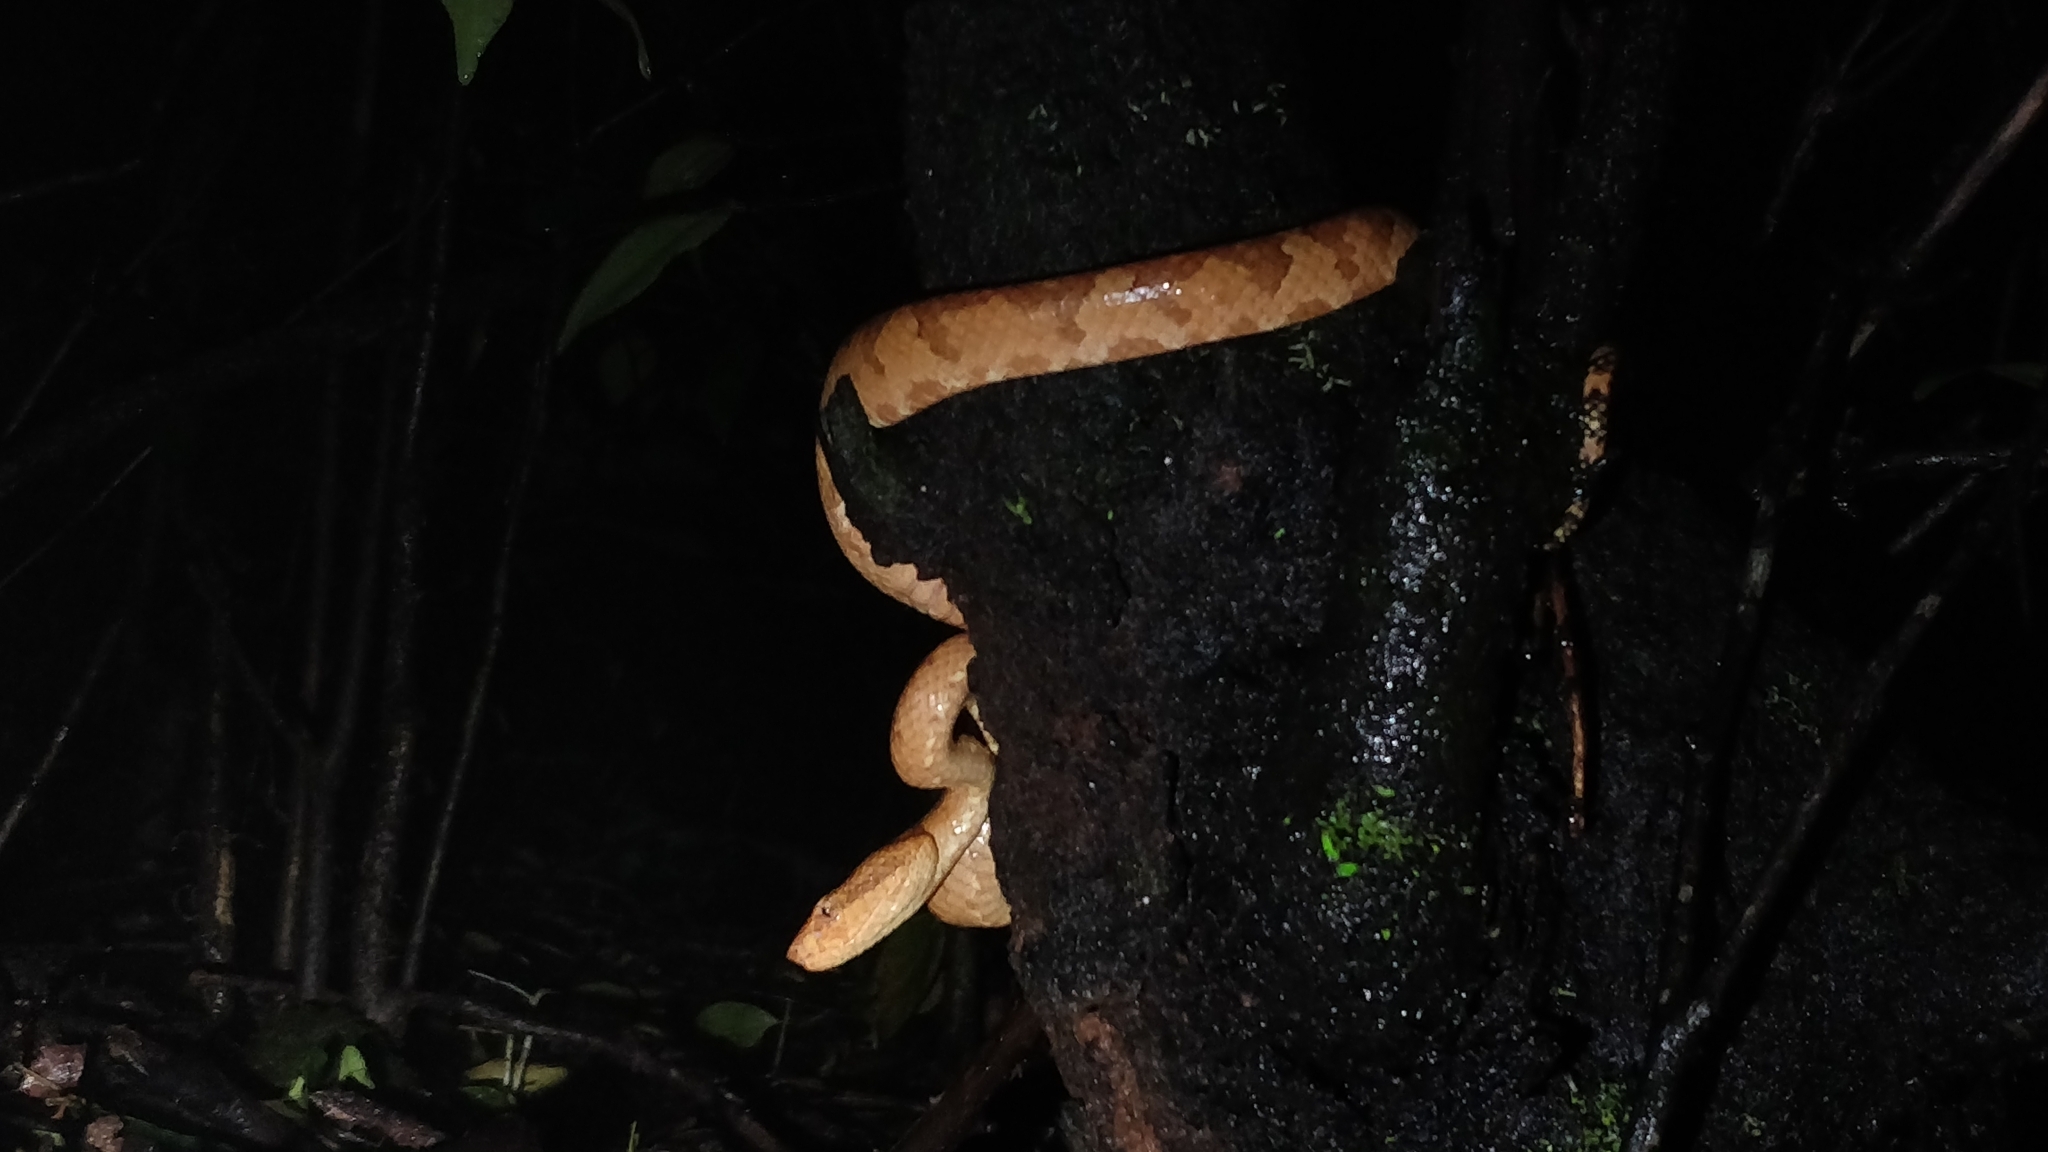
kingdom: Animalia
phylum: Chordata
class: Squamata
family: Viperidae
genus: Craspedocephalus
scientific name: Craspedocephalus malabaricus
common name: Malabarian pit viper
